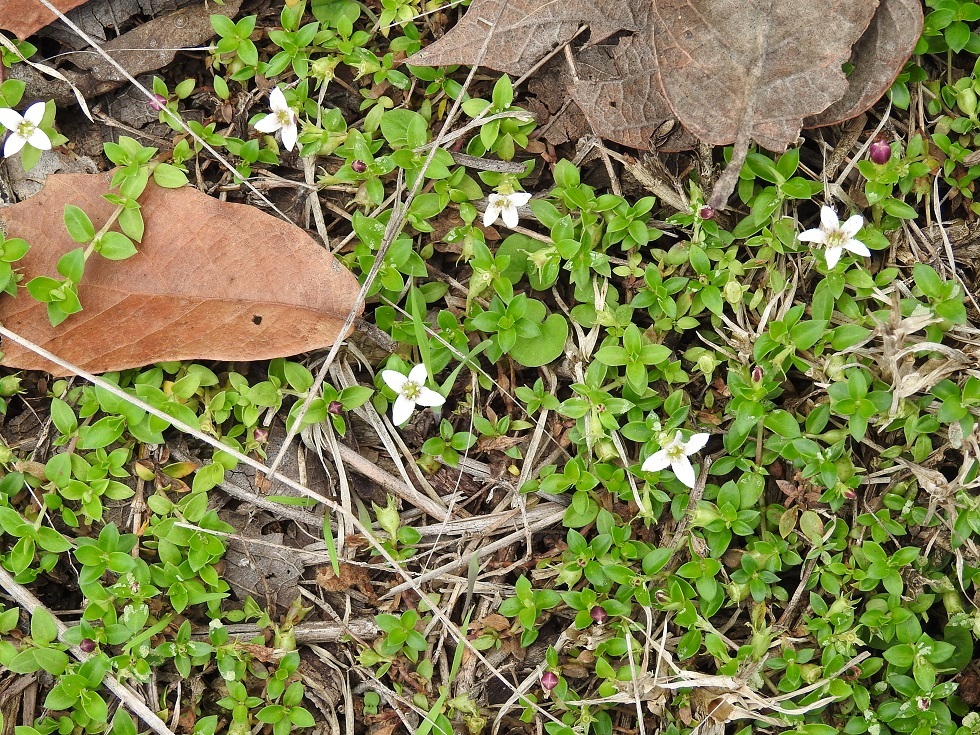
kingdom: Plantae
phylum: Tracheophyta
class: Magnoliopsida
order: Gentianales
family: Rubiaceae
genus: Arcytophyllum
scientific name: Arcytophyllum serpyllaceum
